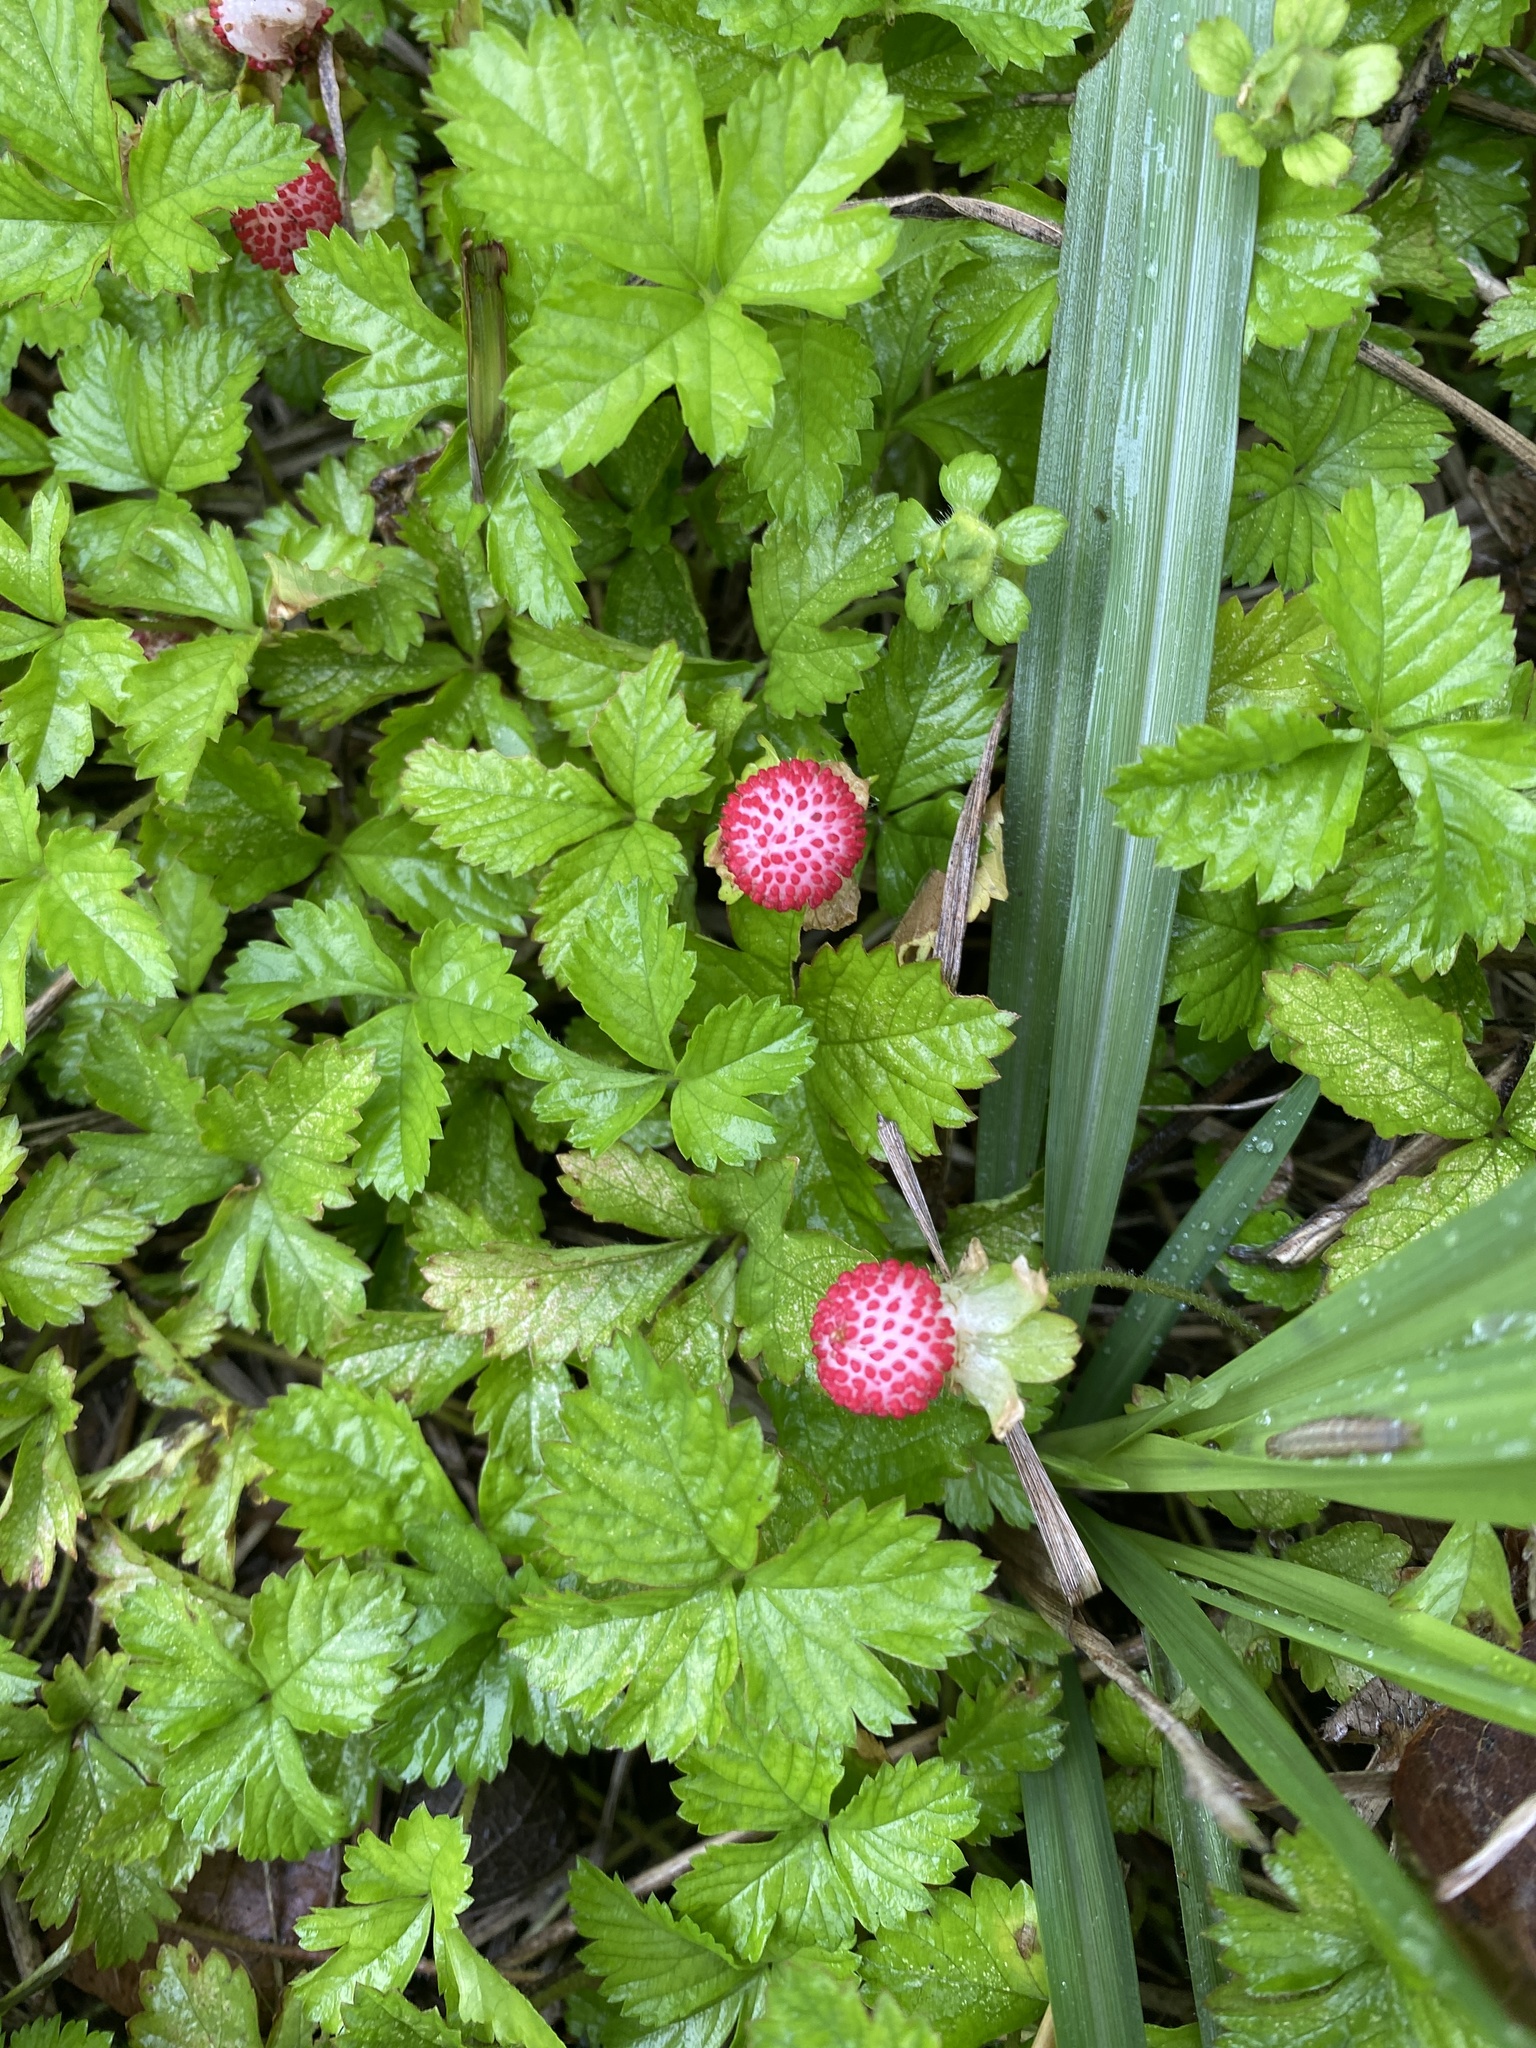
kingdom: Plantae
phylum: Tracheophyta
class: Magnoliopsida
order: Rosales
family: Rosaceae
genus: Potentilla
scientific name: Potentilla indica
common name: Yellow-flowered strawberry
